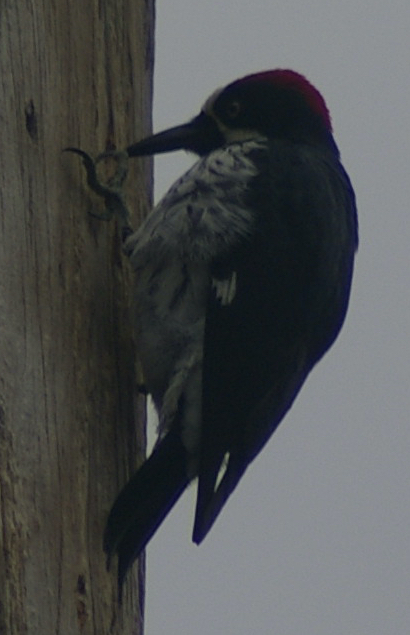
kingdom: Animalia
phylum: Chordata
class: Aves
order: Piciformes
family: Picidae
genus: Melanerpes
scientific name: Melanerpes formicivorus
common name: Acorn woodpecker
